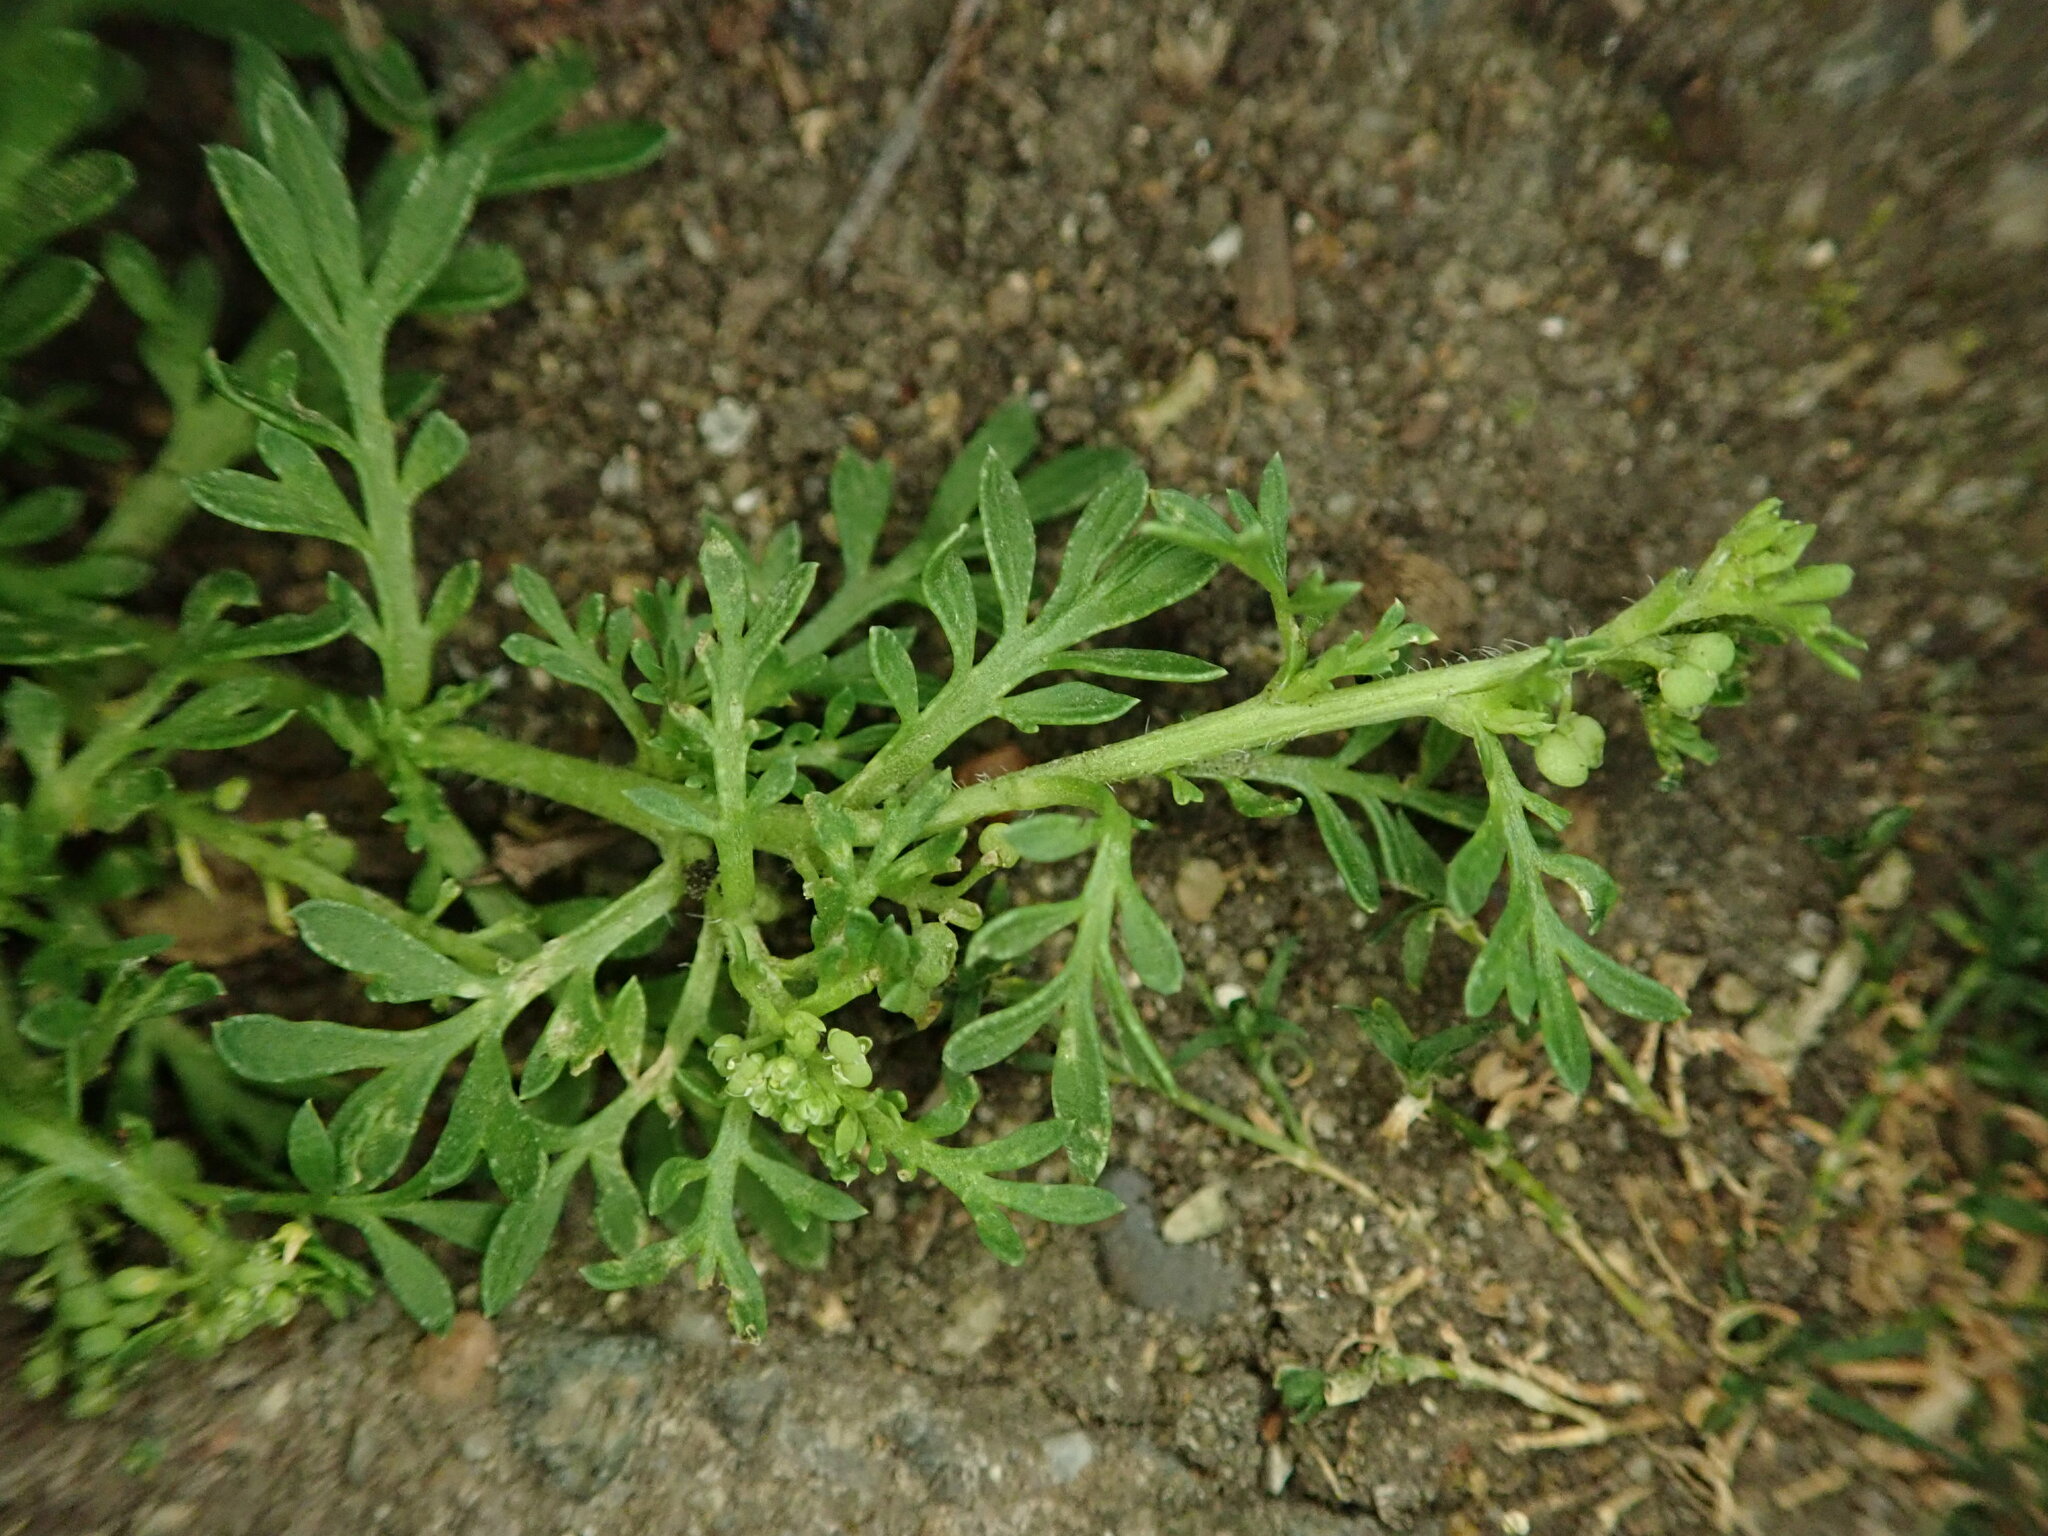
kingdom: Plantae
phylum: Tracheophyta
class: Magnoliopsida
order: Brassicales
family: Brassicaceae
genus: Lepidium
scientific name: Lepidium didymum
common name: Lesser swinecress
